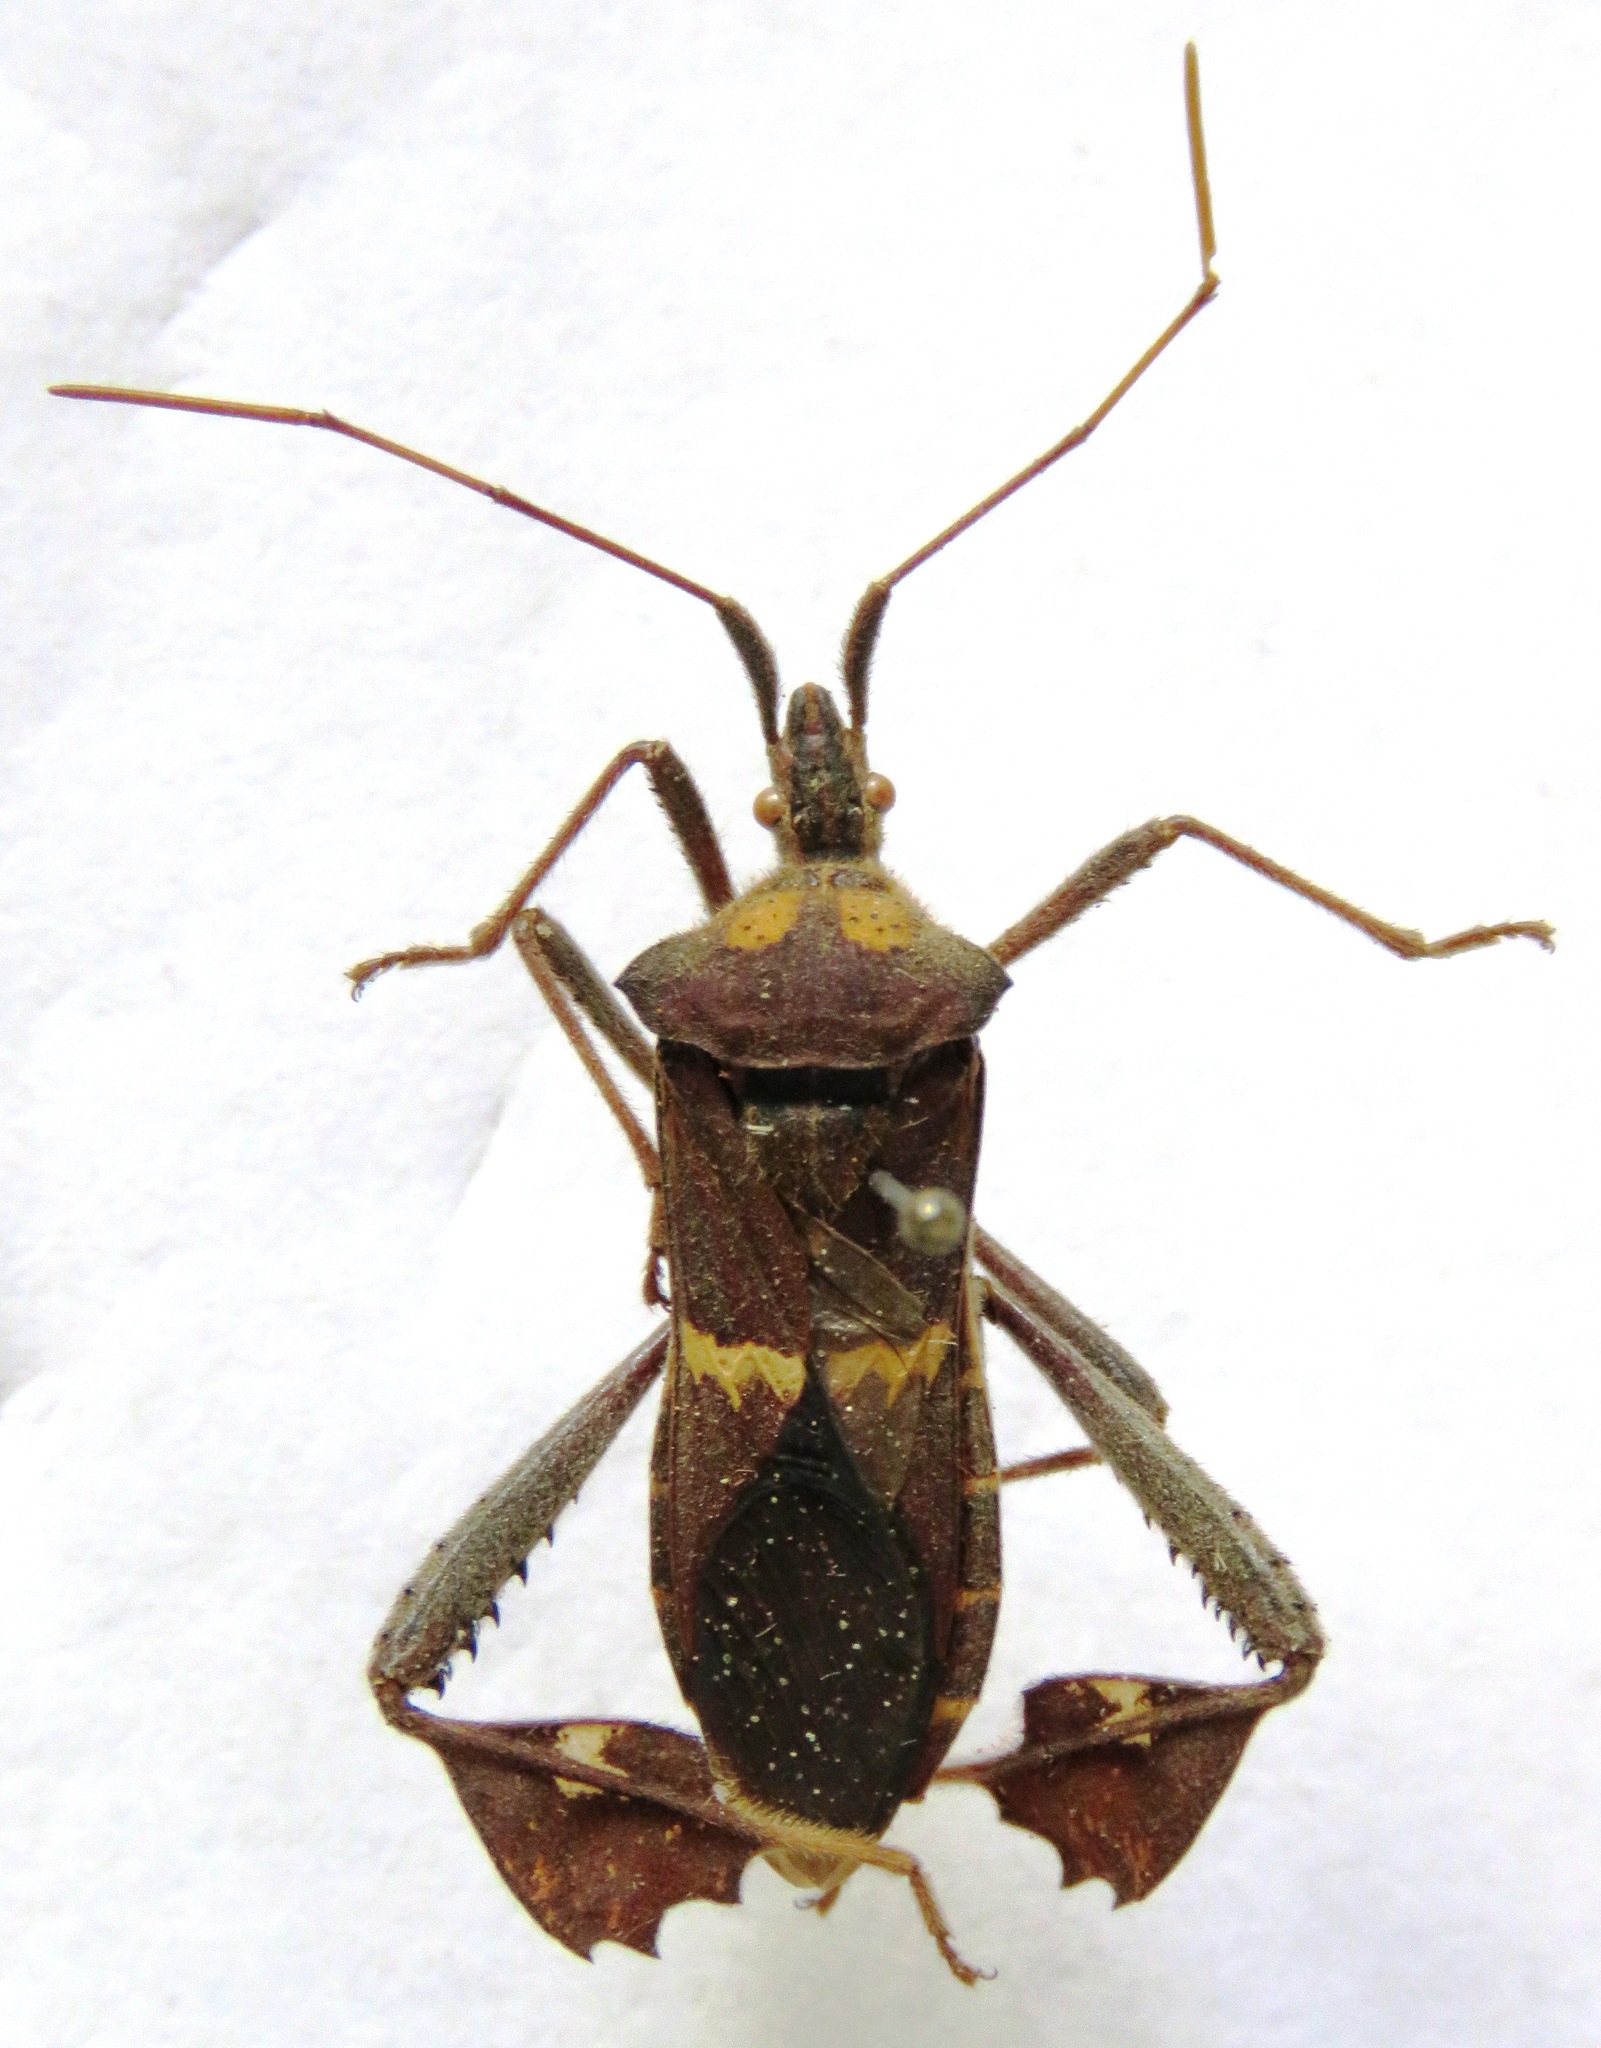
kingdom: Animalia
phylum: Arthropoda
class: Insecta
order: Hemiptera
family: Coreidae
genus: Leptoglossus
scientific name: Leptoglossus zonatus
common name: Large-legged bug
